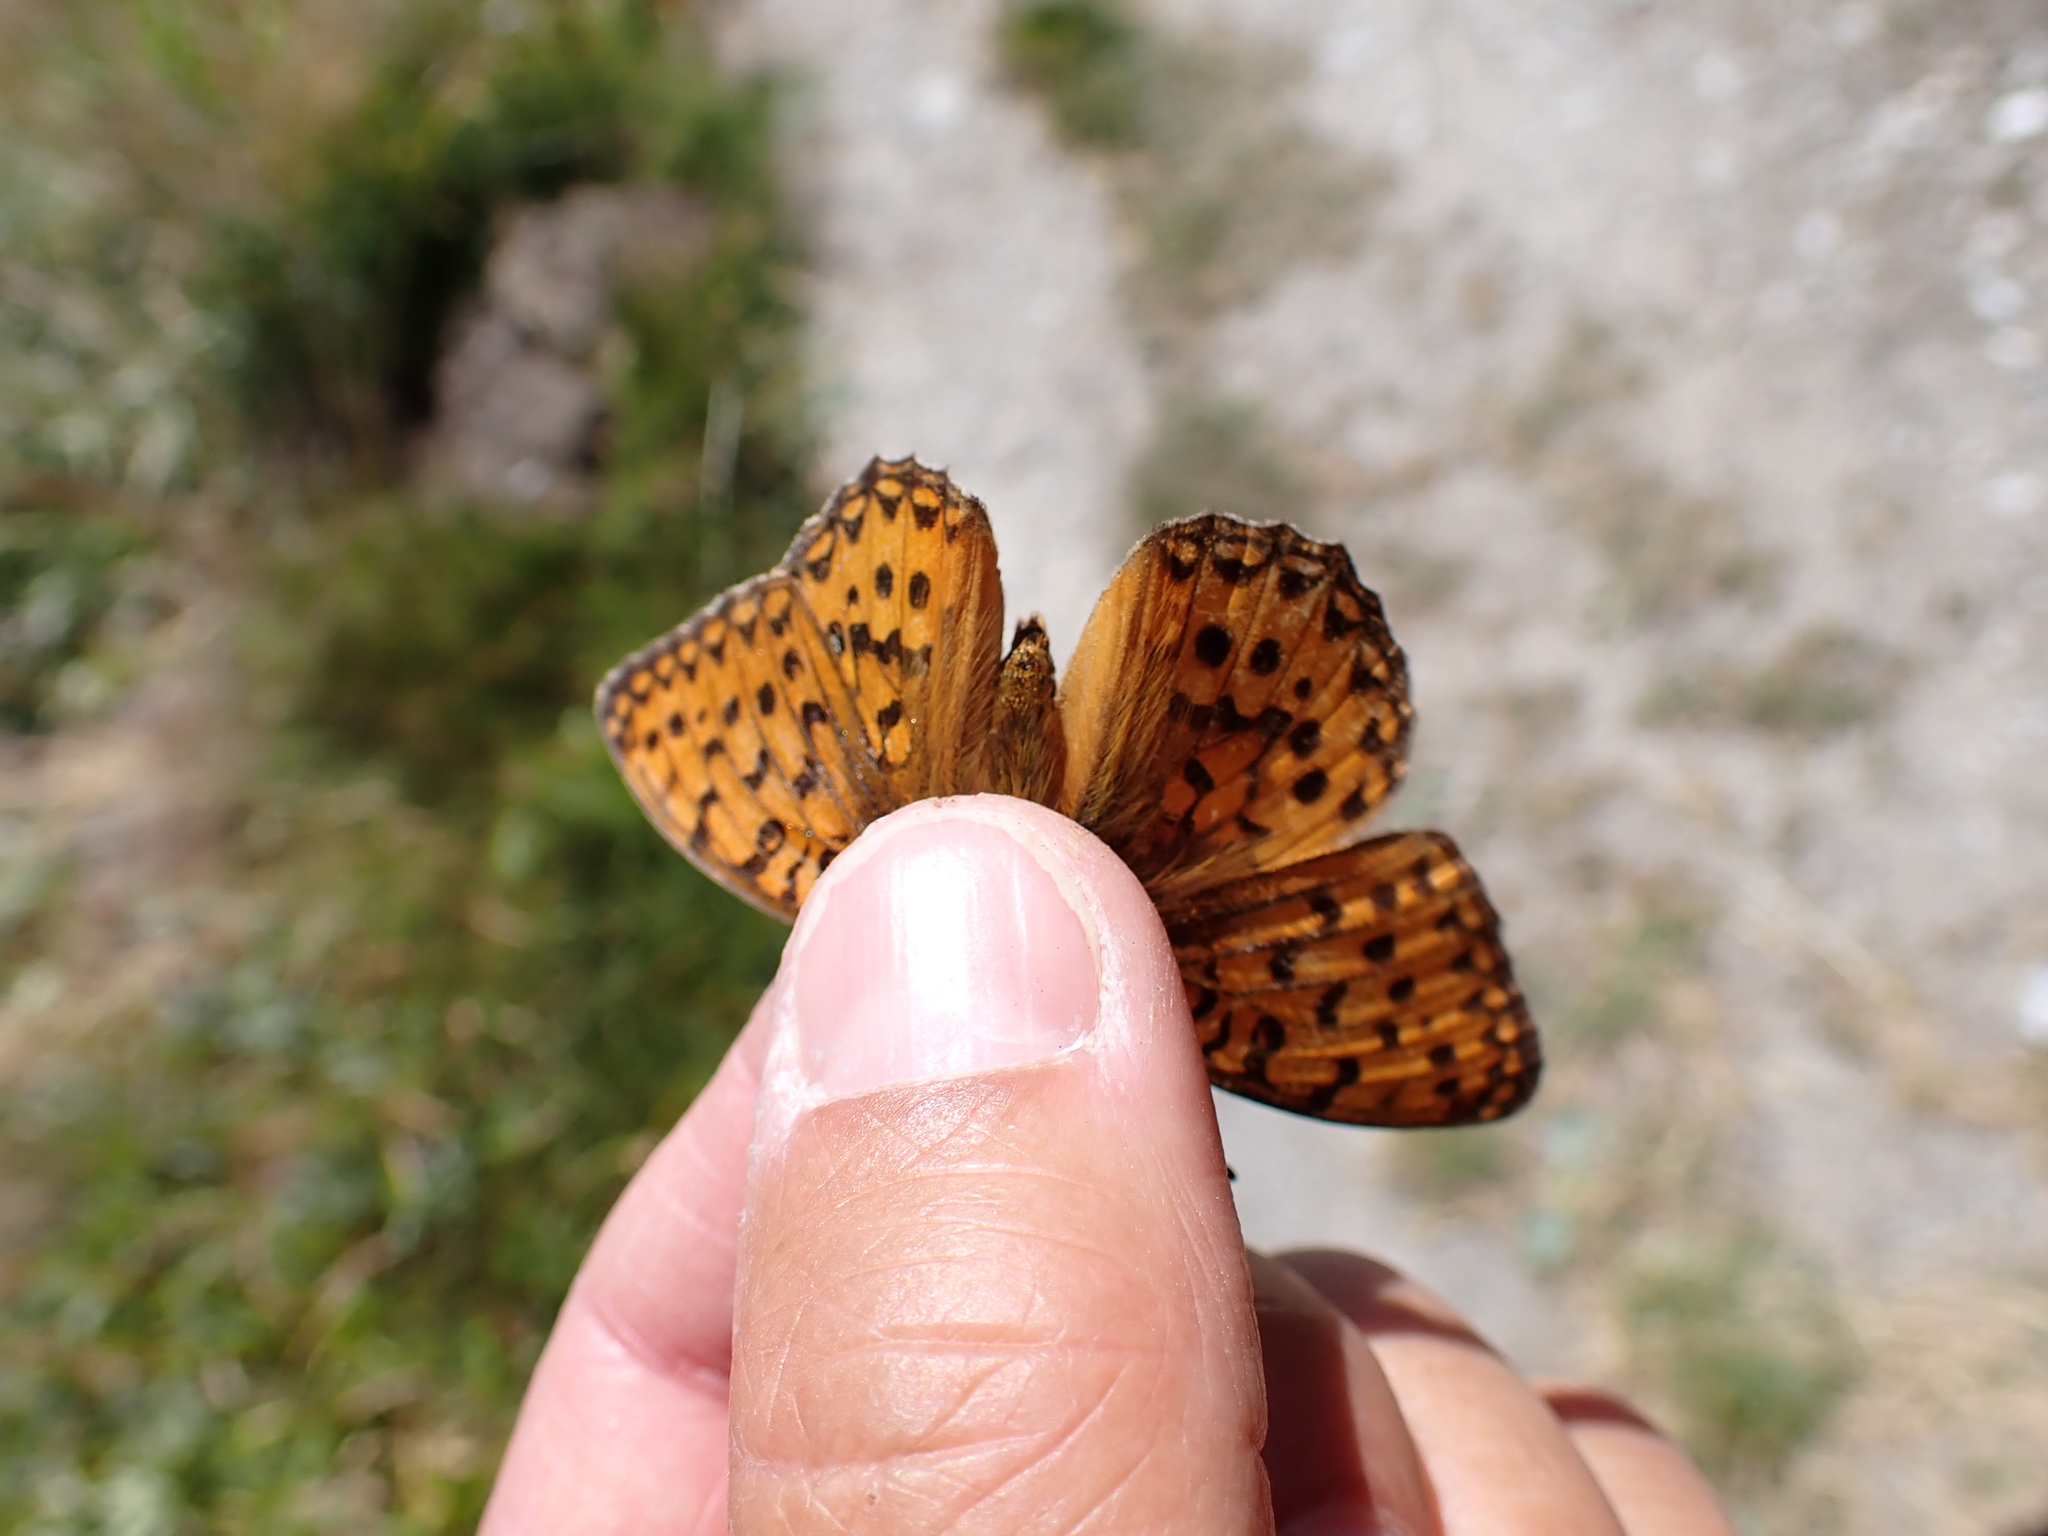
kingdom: Animalia
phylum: Arthropoda
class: Insecta
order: Lepidoptera
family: Nymphalidae
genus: Speyeria
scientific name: Speyeria aglaja
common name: Dark green fritillary
